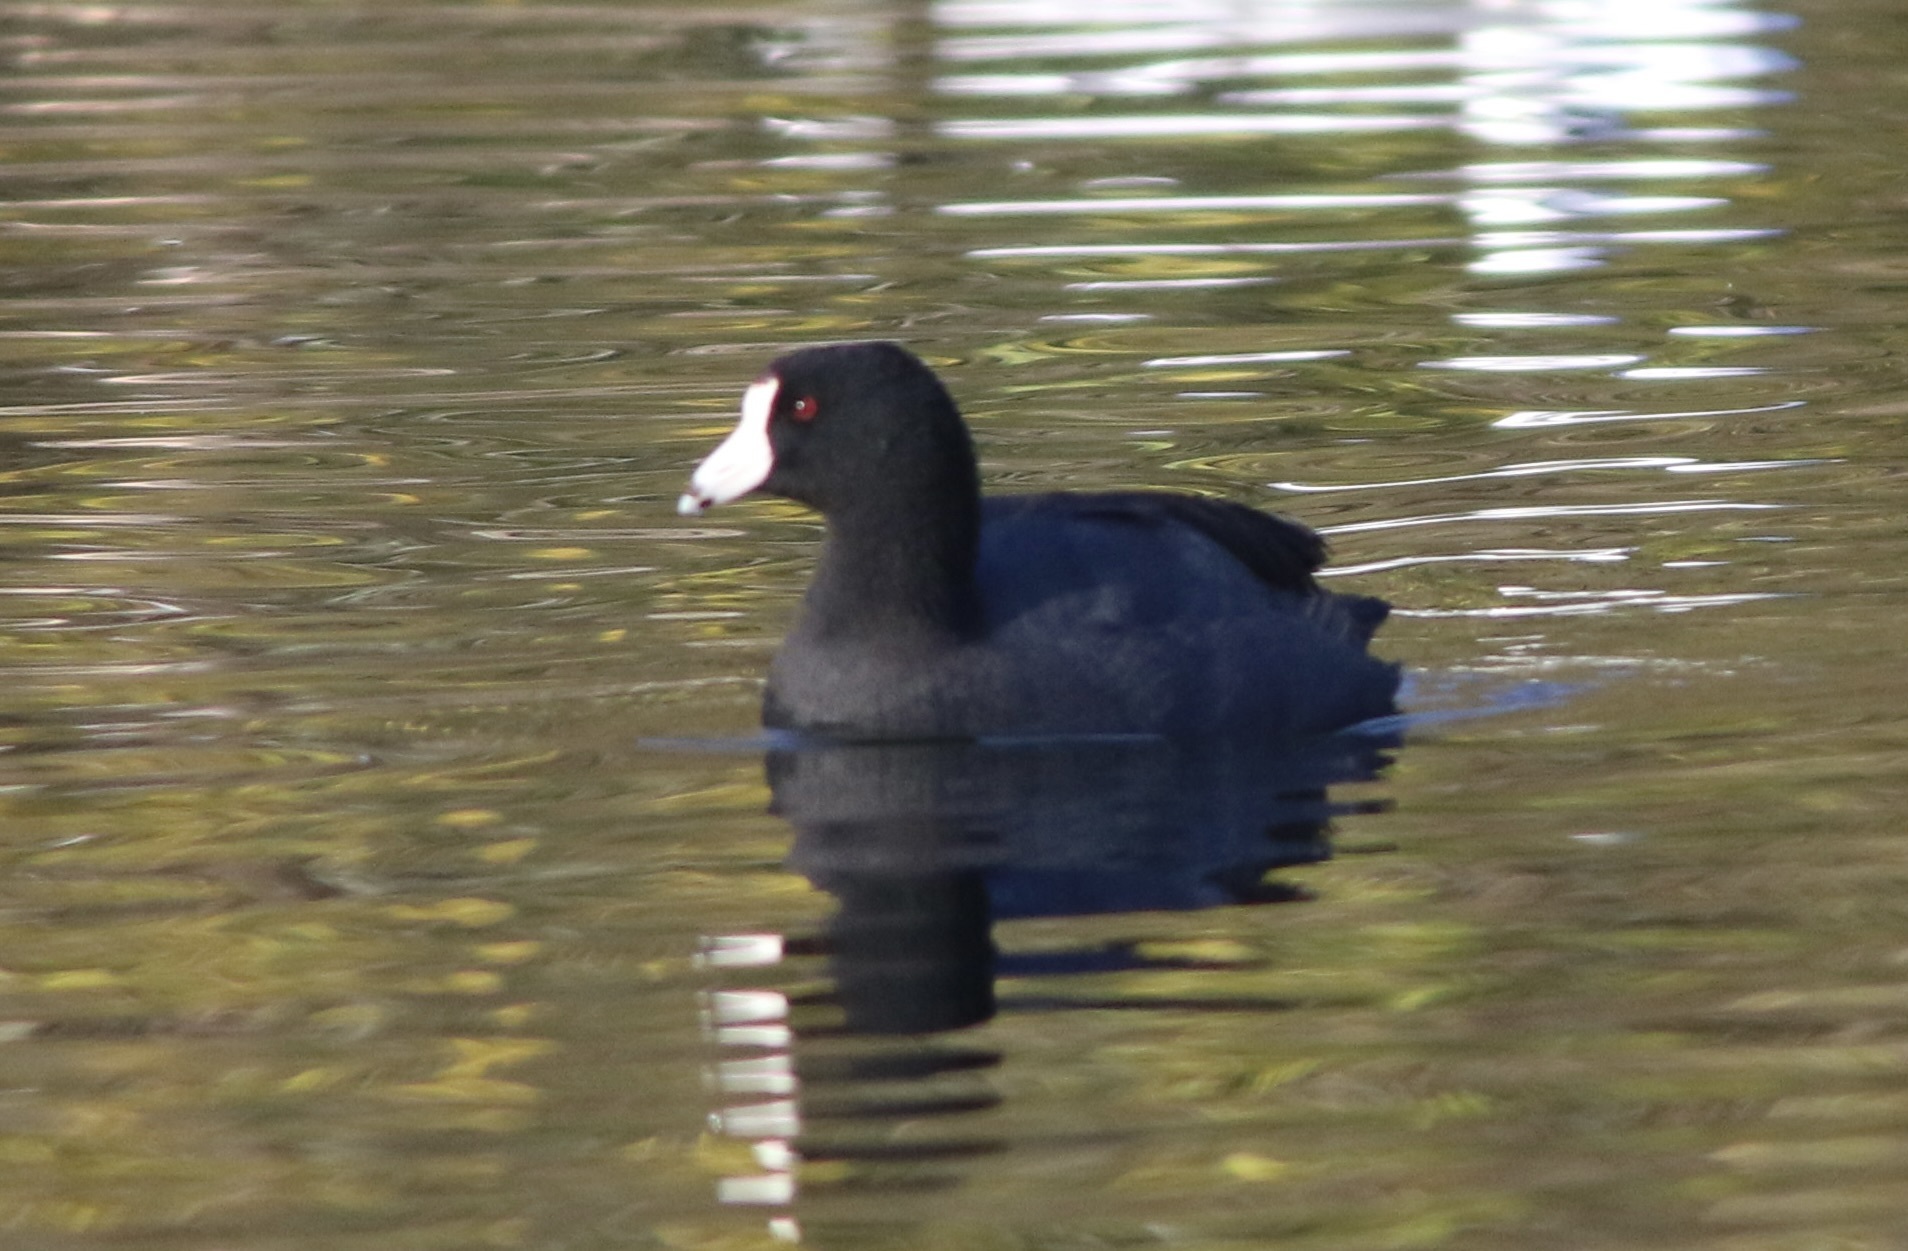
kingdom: Animalia
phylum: Chordata
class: Aves
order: Gruiformes
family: Rallidae
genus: Fulica
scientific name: Fulica americana
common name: American coot
